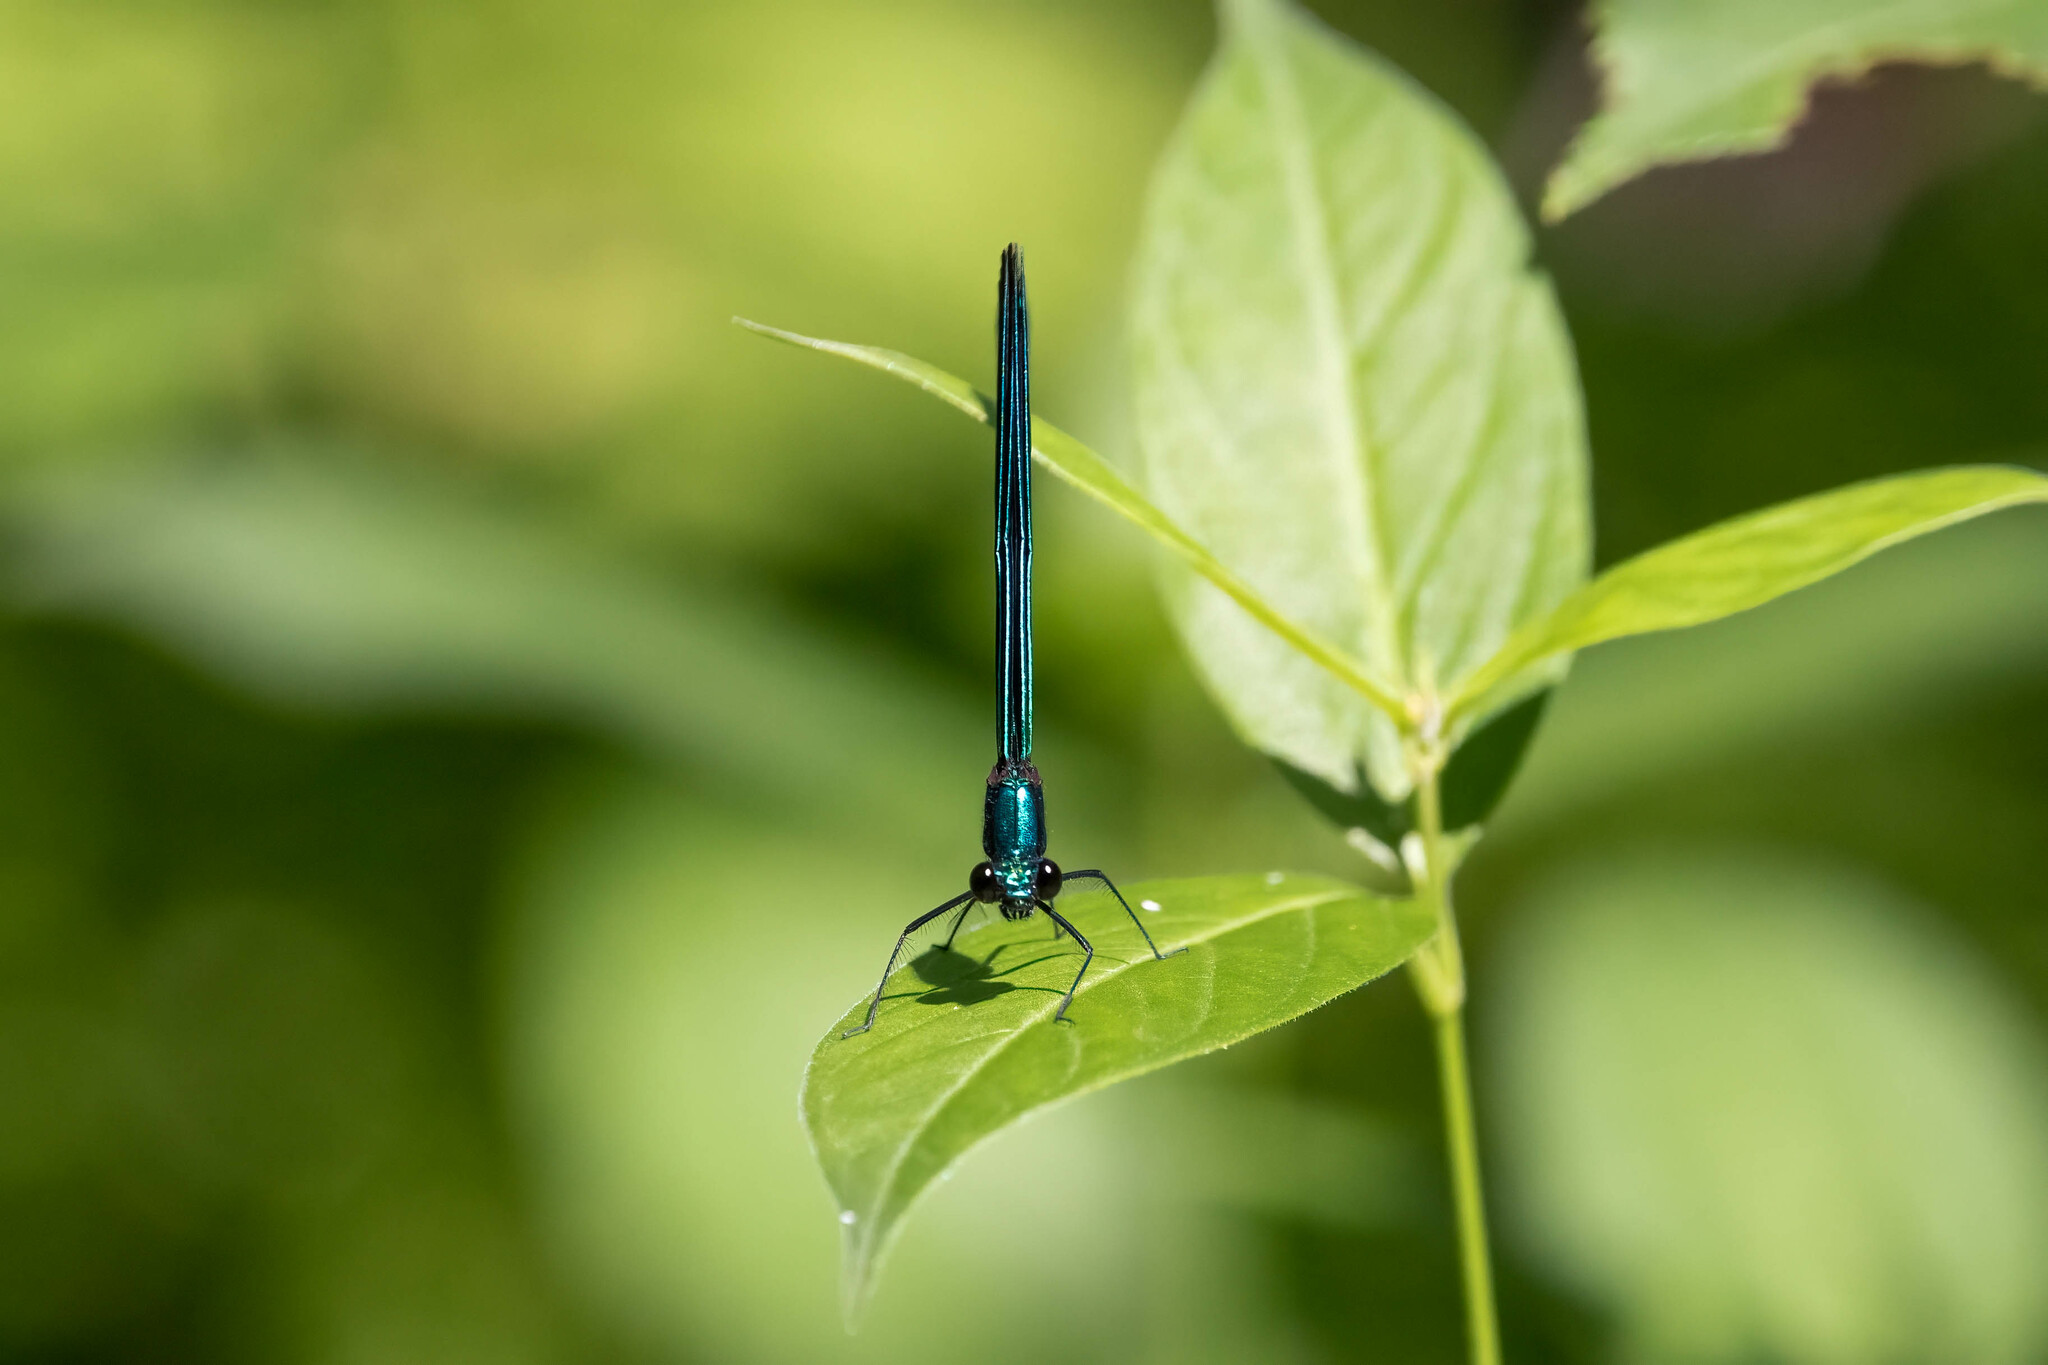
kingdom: Animalia
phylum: Arthropoda
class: Insecta
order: Odonata
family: Calopterygidae
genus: Calopteryx
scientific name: Calopteryx maculata
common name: Ebony jewelwing
